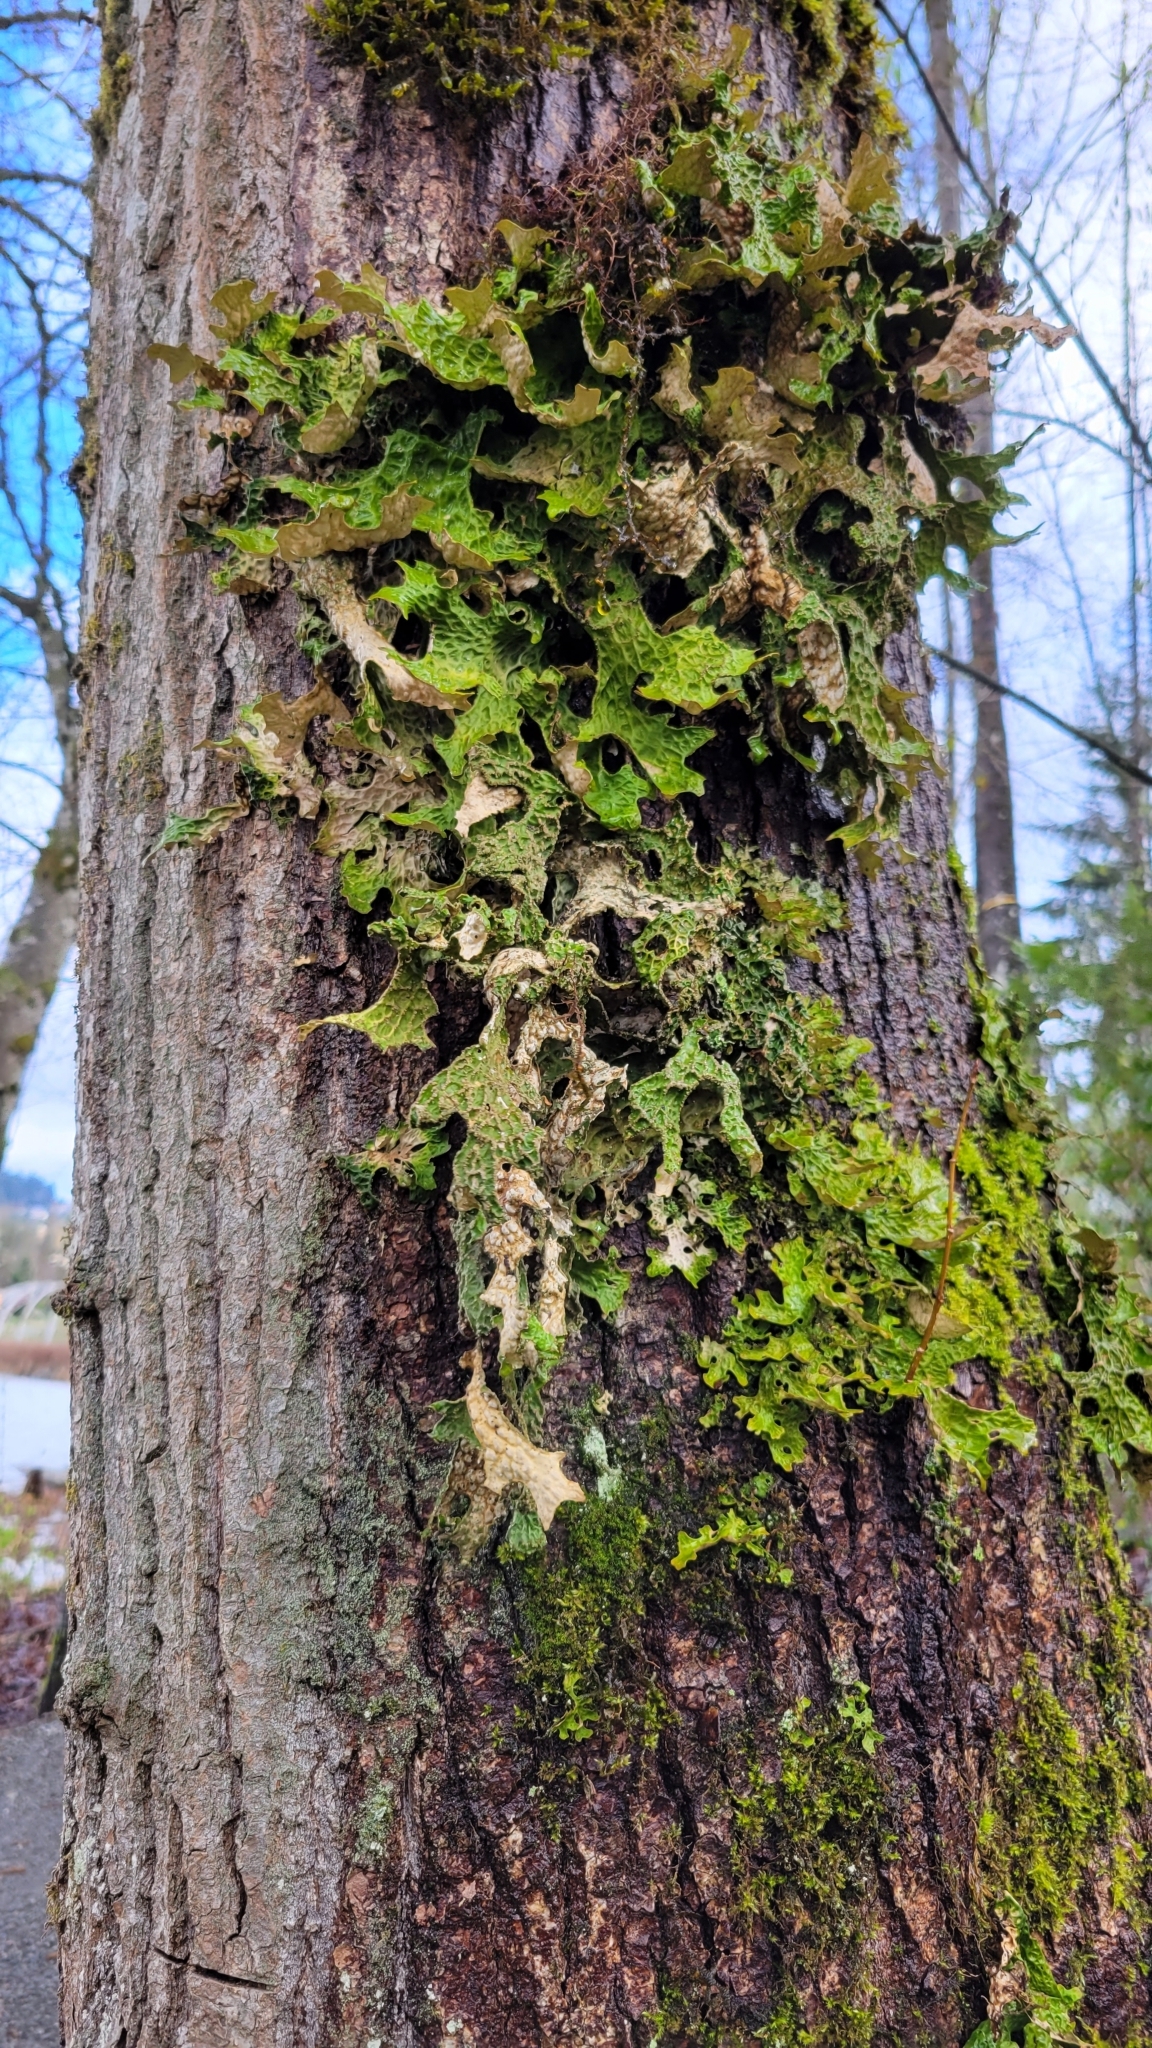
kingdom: Fungi
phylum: Ascomycota
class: Lecanoromycetes
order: Peltigerales
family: Lobariaceae
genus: Lobaria
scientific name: Lobaria pulmonaria
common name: Lungwort
